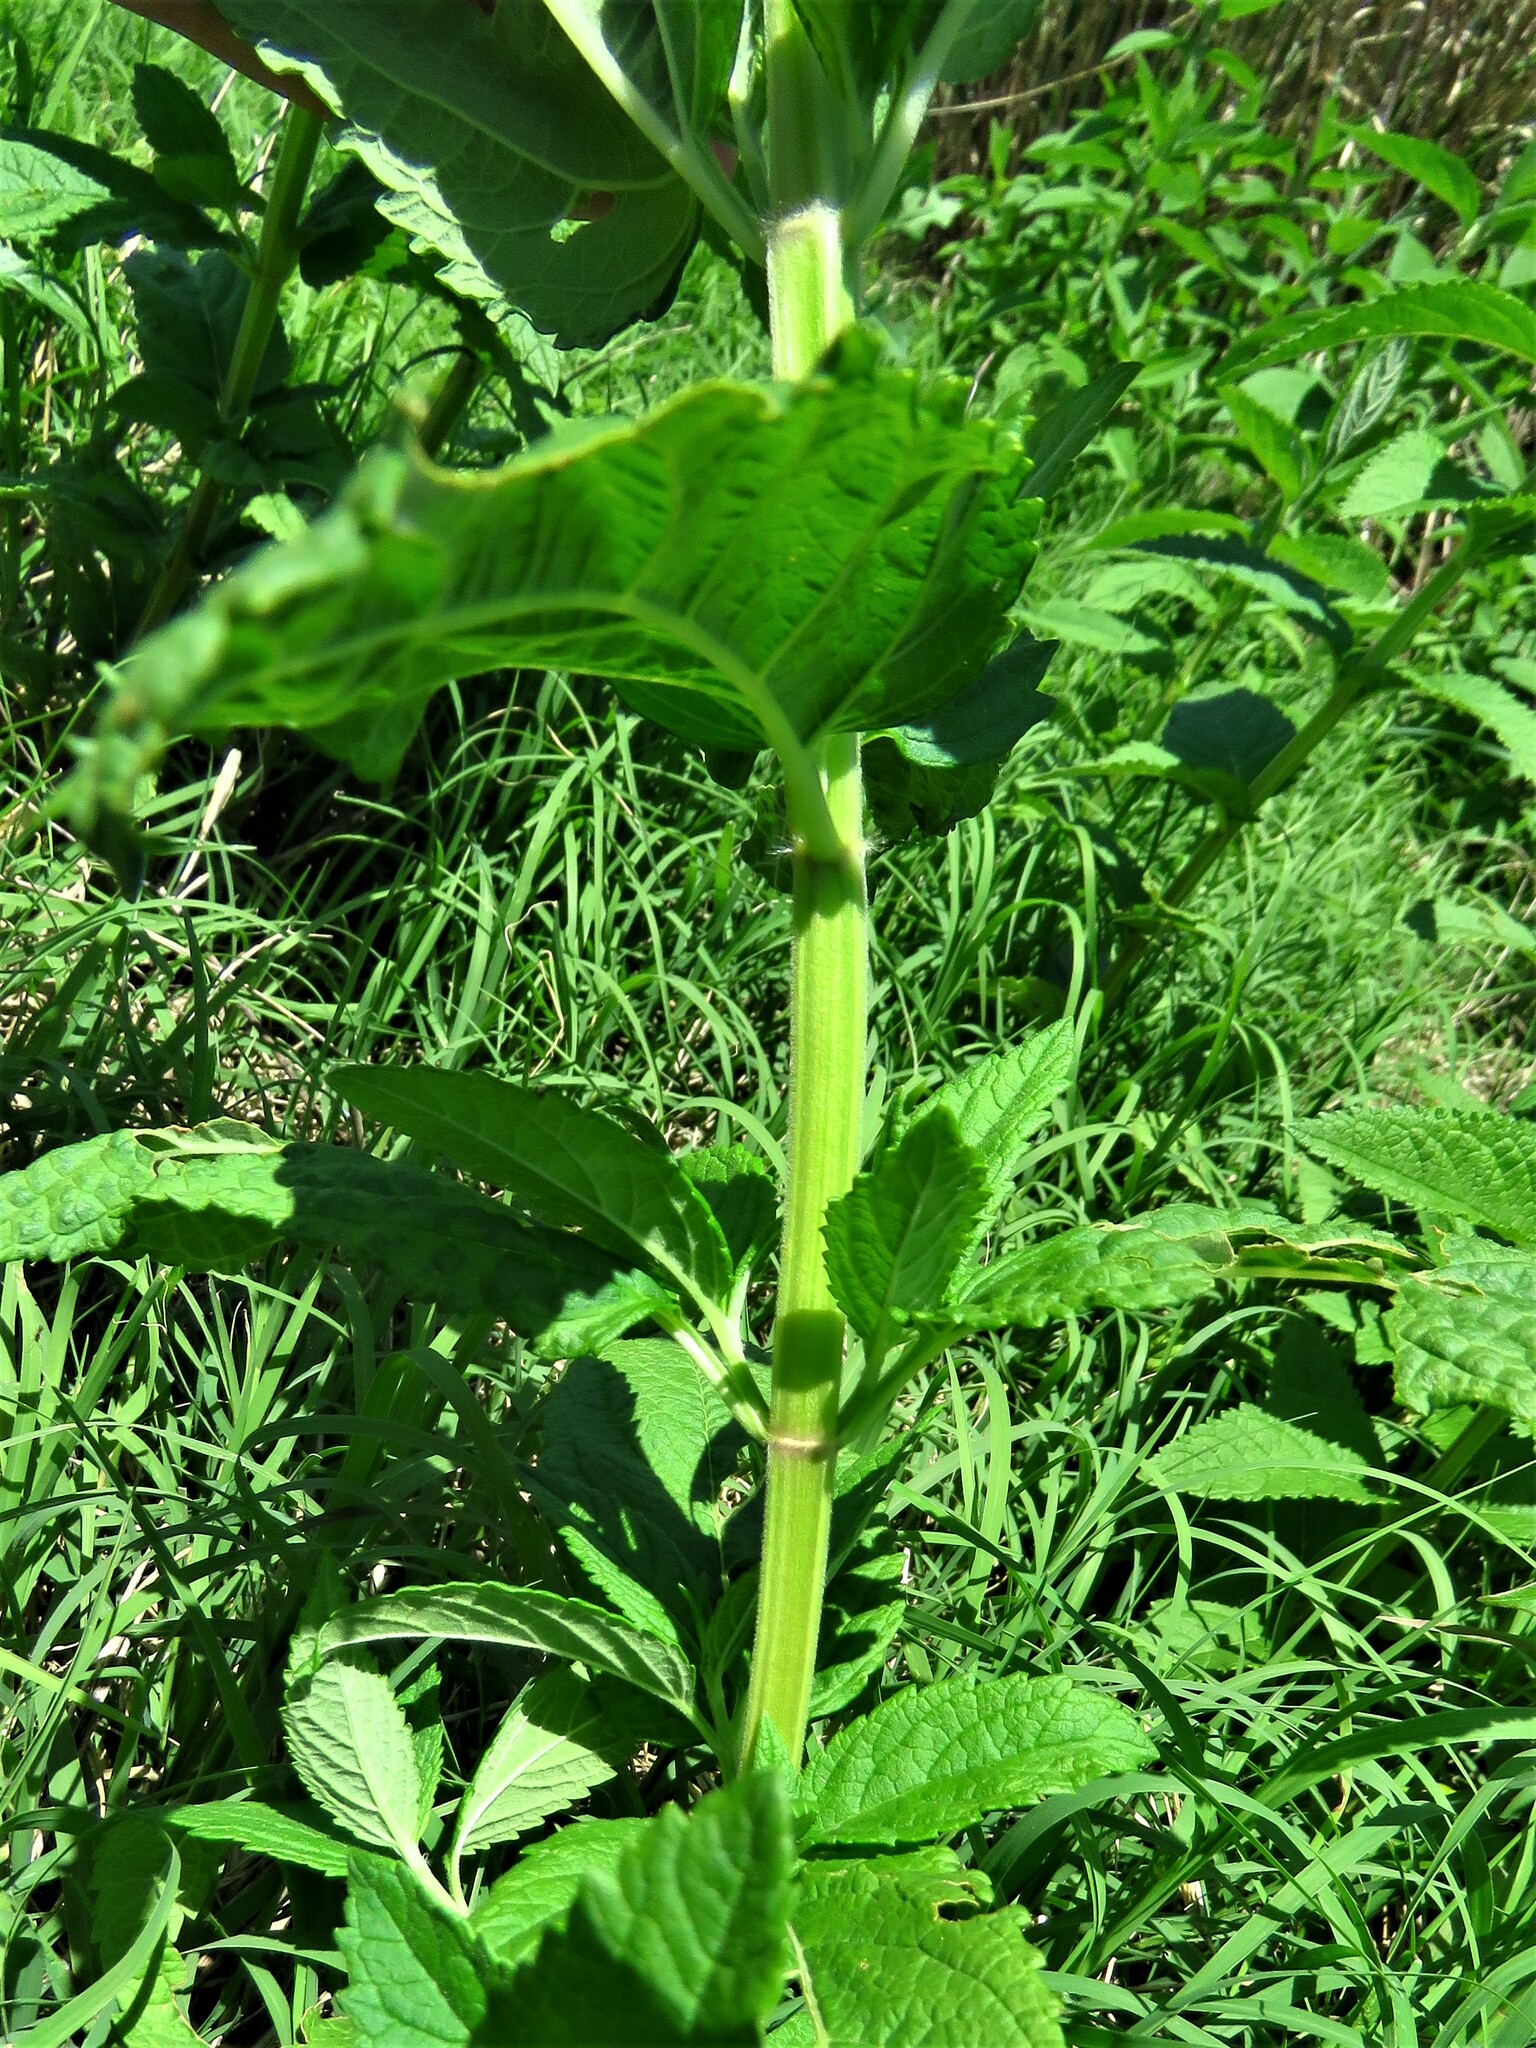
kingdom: Plantae
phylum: Tracheophyta
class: Magnoliopsida
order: Lamiales
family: Lamiaceae
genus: Teucrium
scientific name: Teucrium canadense
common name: American germander
